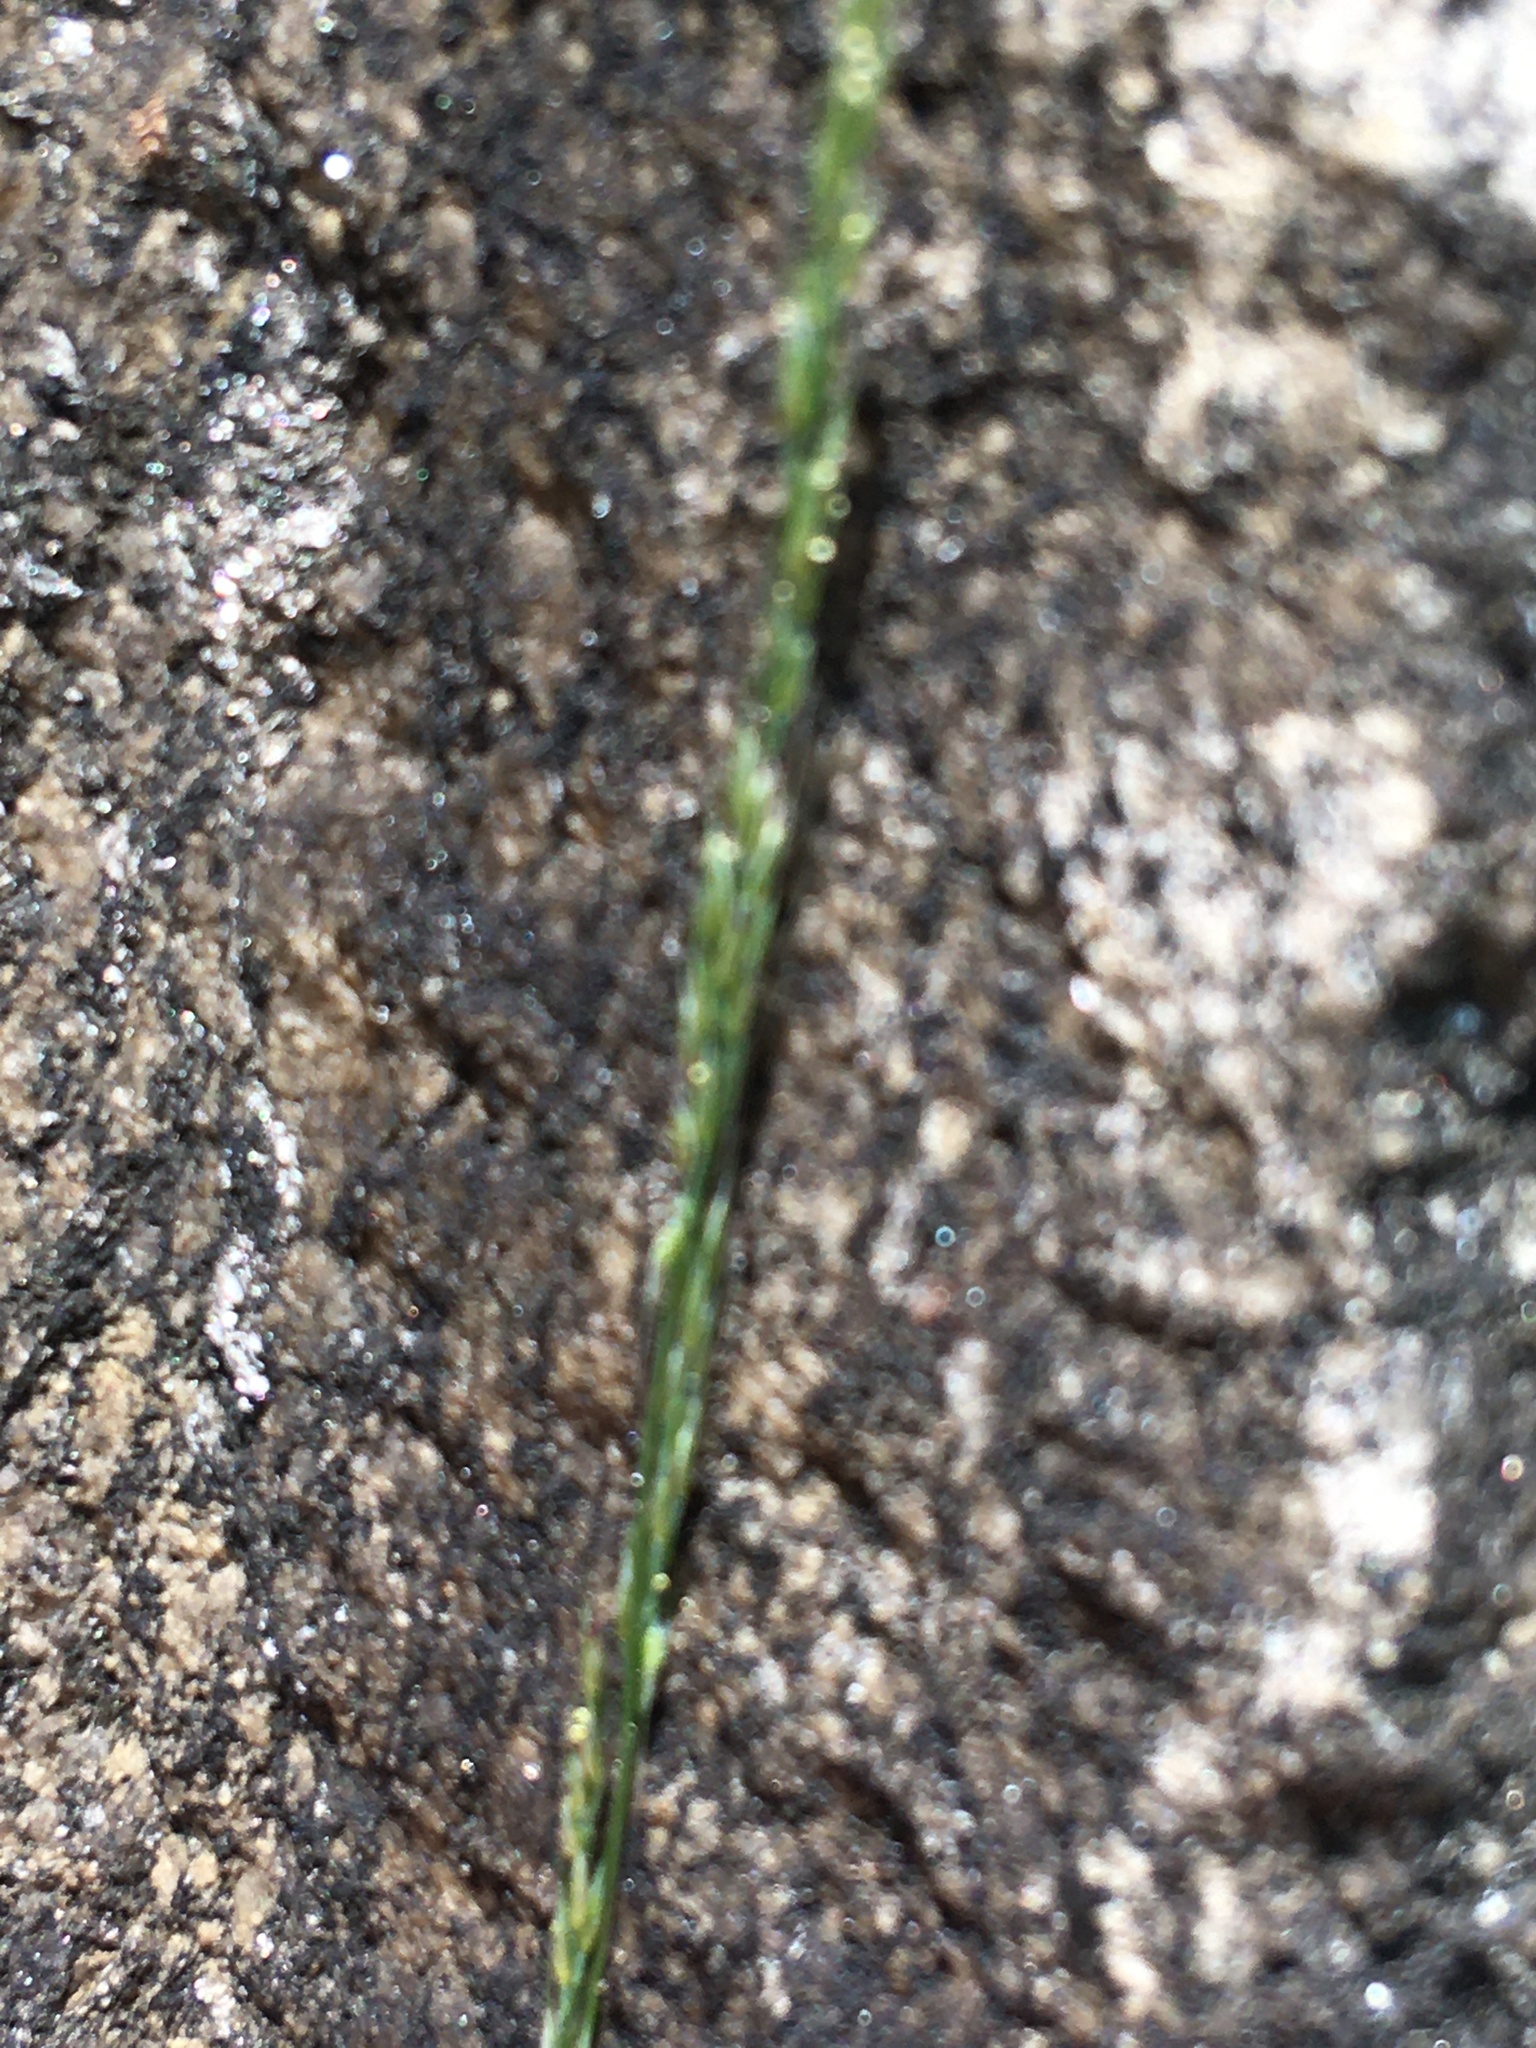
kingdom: Plantae
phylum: Tracheophyta
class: Liliopsida
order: Poales
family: Poaceae
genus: Muhlenbergia
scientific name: Muhlenbergia schreberi
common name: Nimblewill
